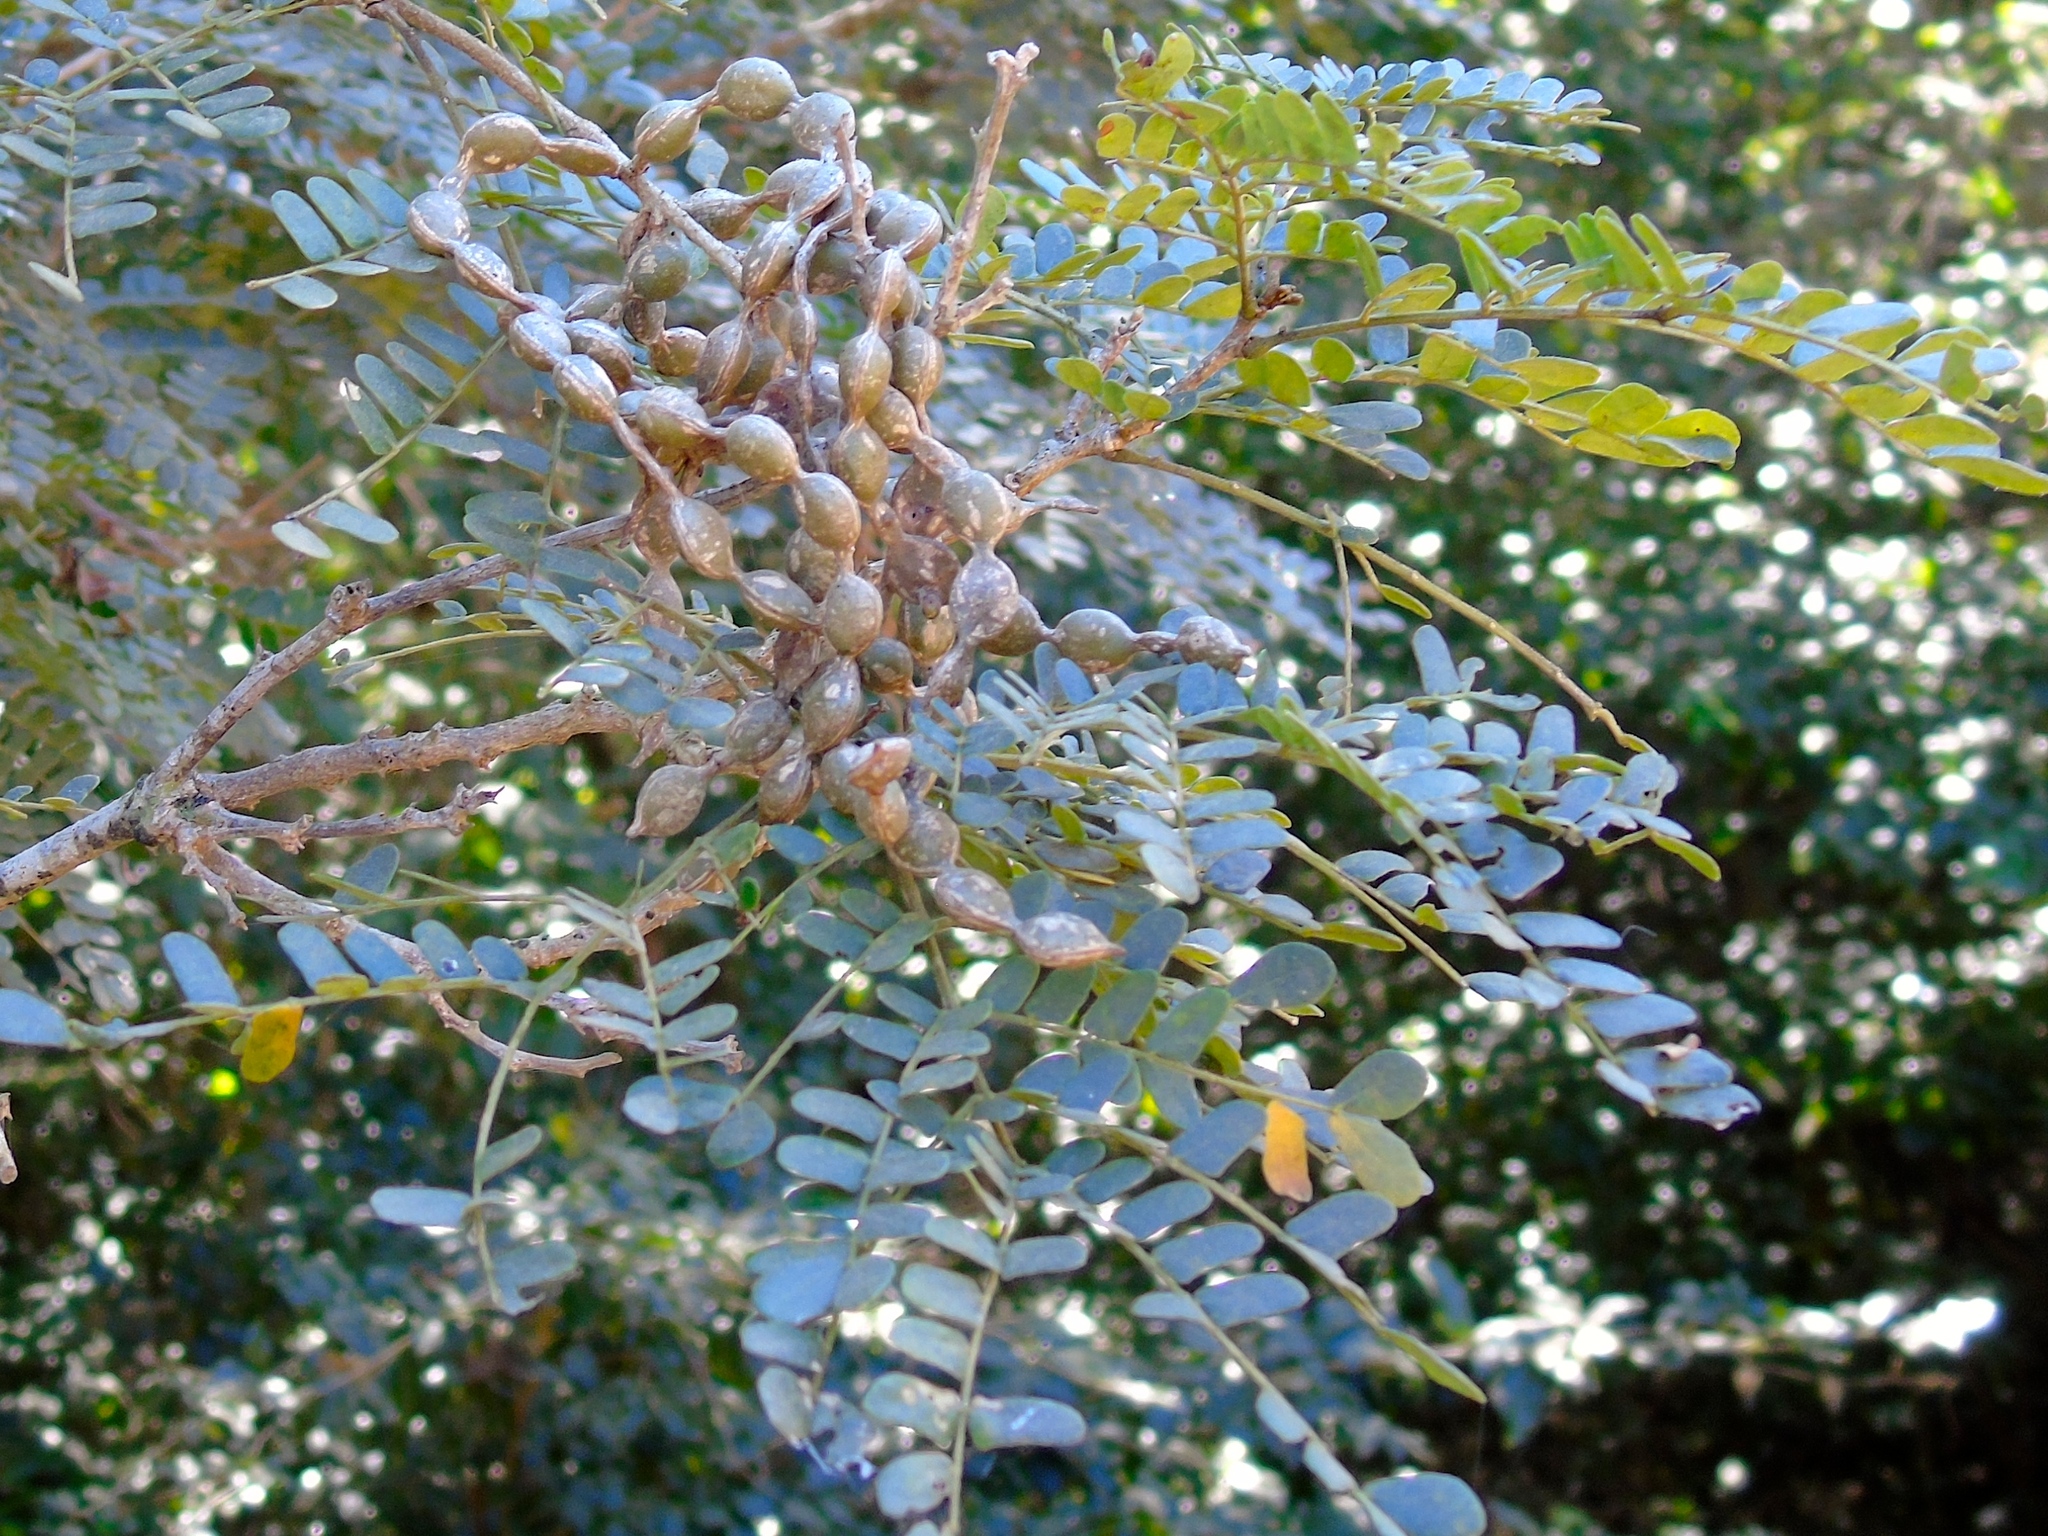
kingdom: Plantae
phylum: Tracheophyta
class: Magnoliopsida
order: Fabales
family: Fabaceae
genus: Pityrocarpa
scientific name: Pityrocarpa obliqua
